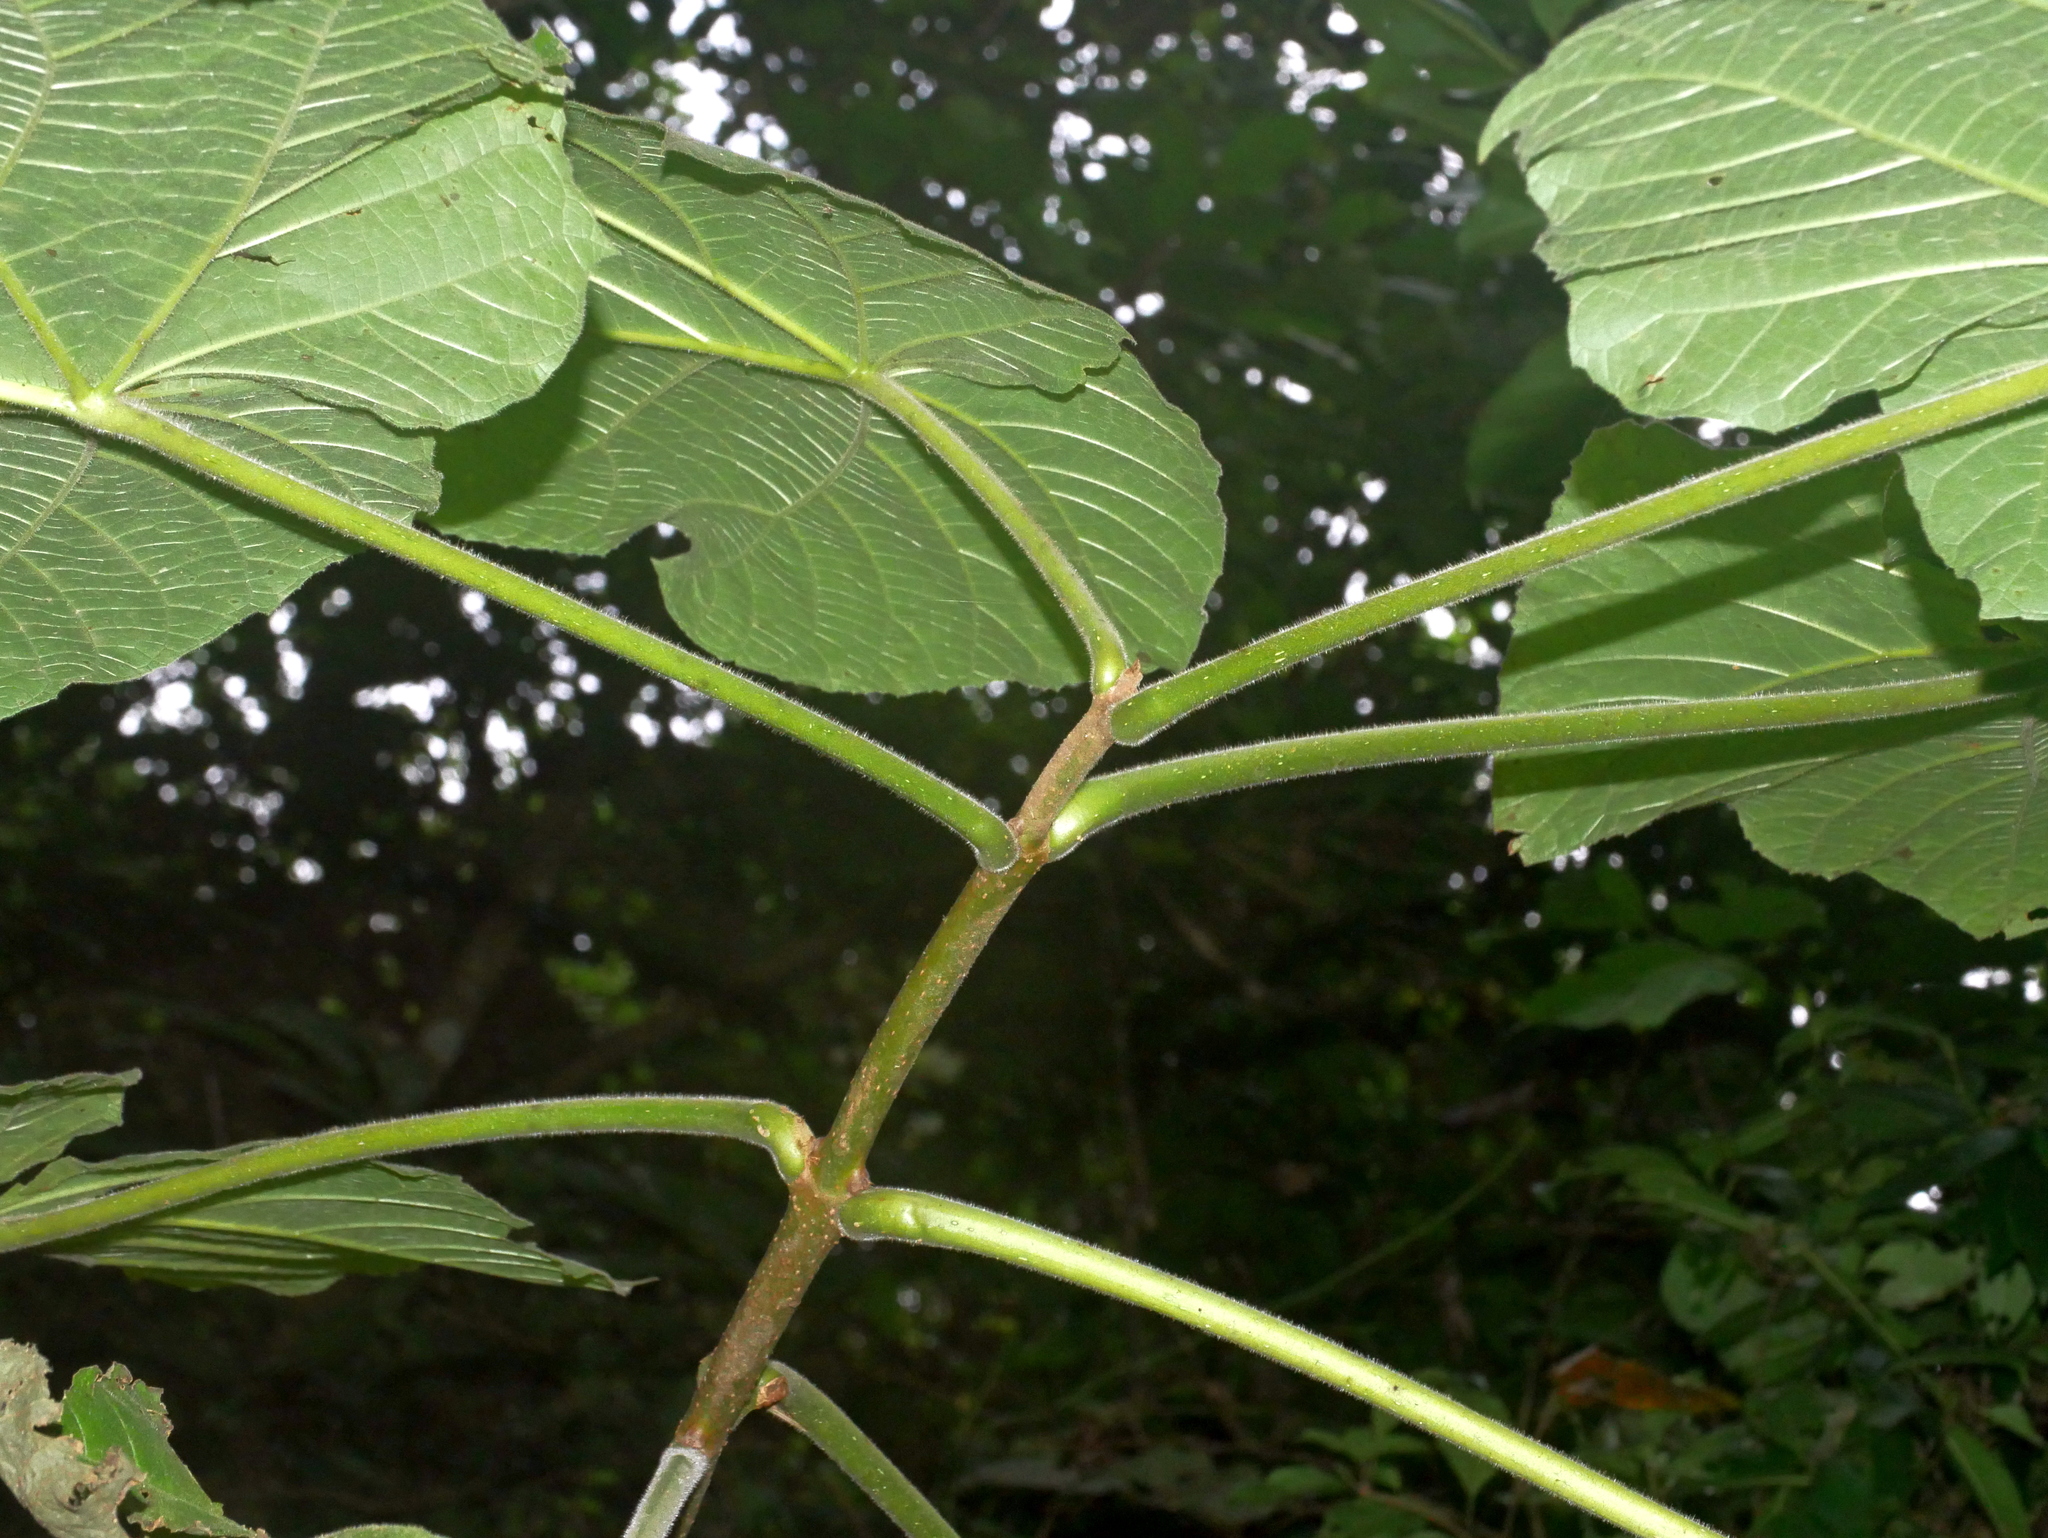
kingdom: Plantae
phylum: Tracheophyta
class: Magnoliopsida
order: Lamiales
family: Paulowniaceae
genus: Paulownia
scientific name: Paulownia fortunei
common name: Dragontree
